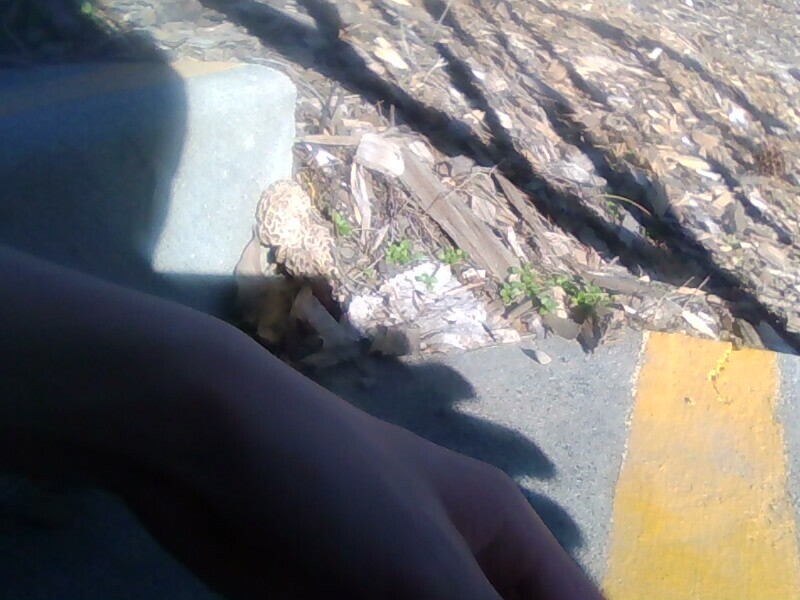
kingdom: Fungi
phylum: Ascomycota
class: Pezizomycetes
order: Pezizales
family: Morchellaceae
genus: Morchella
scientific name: Morchella rufobrunnea
